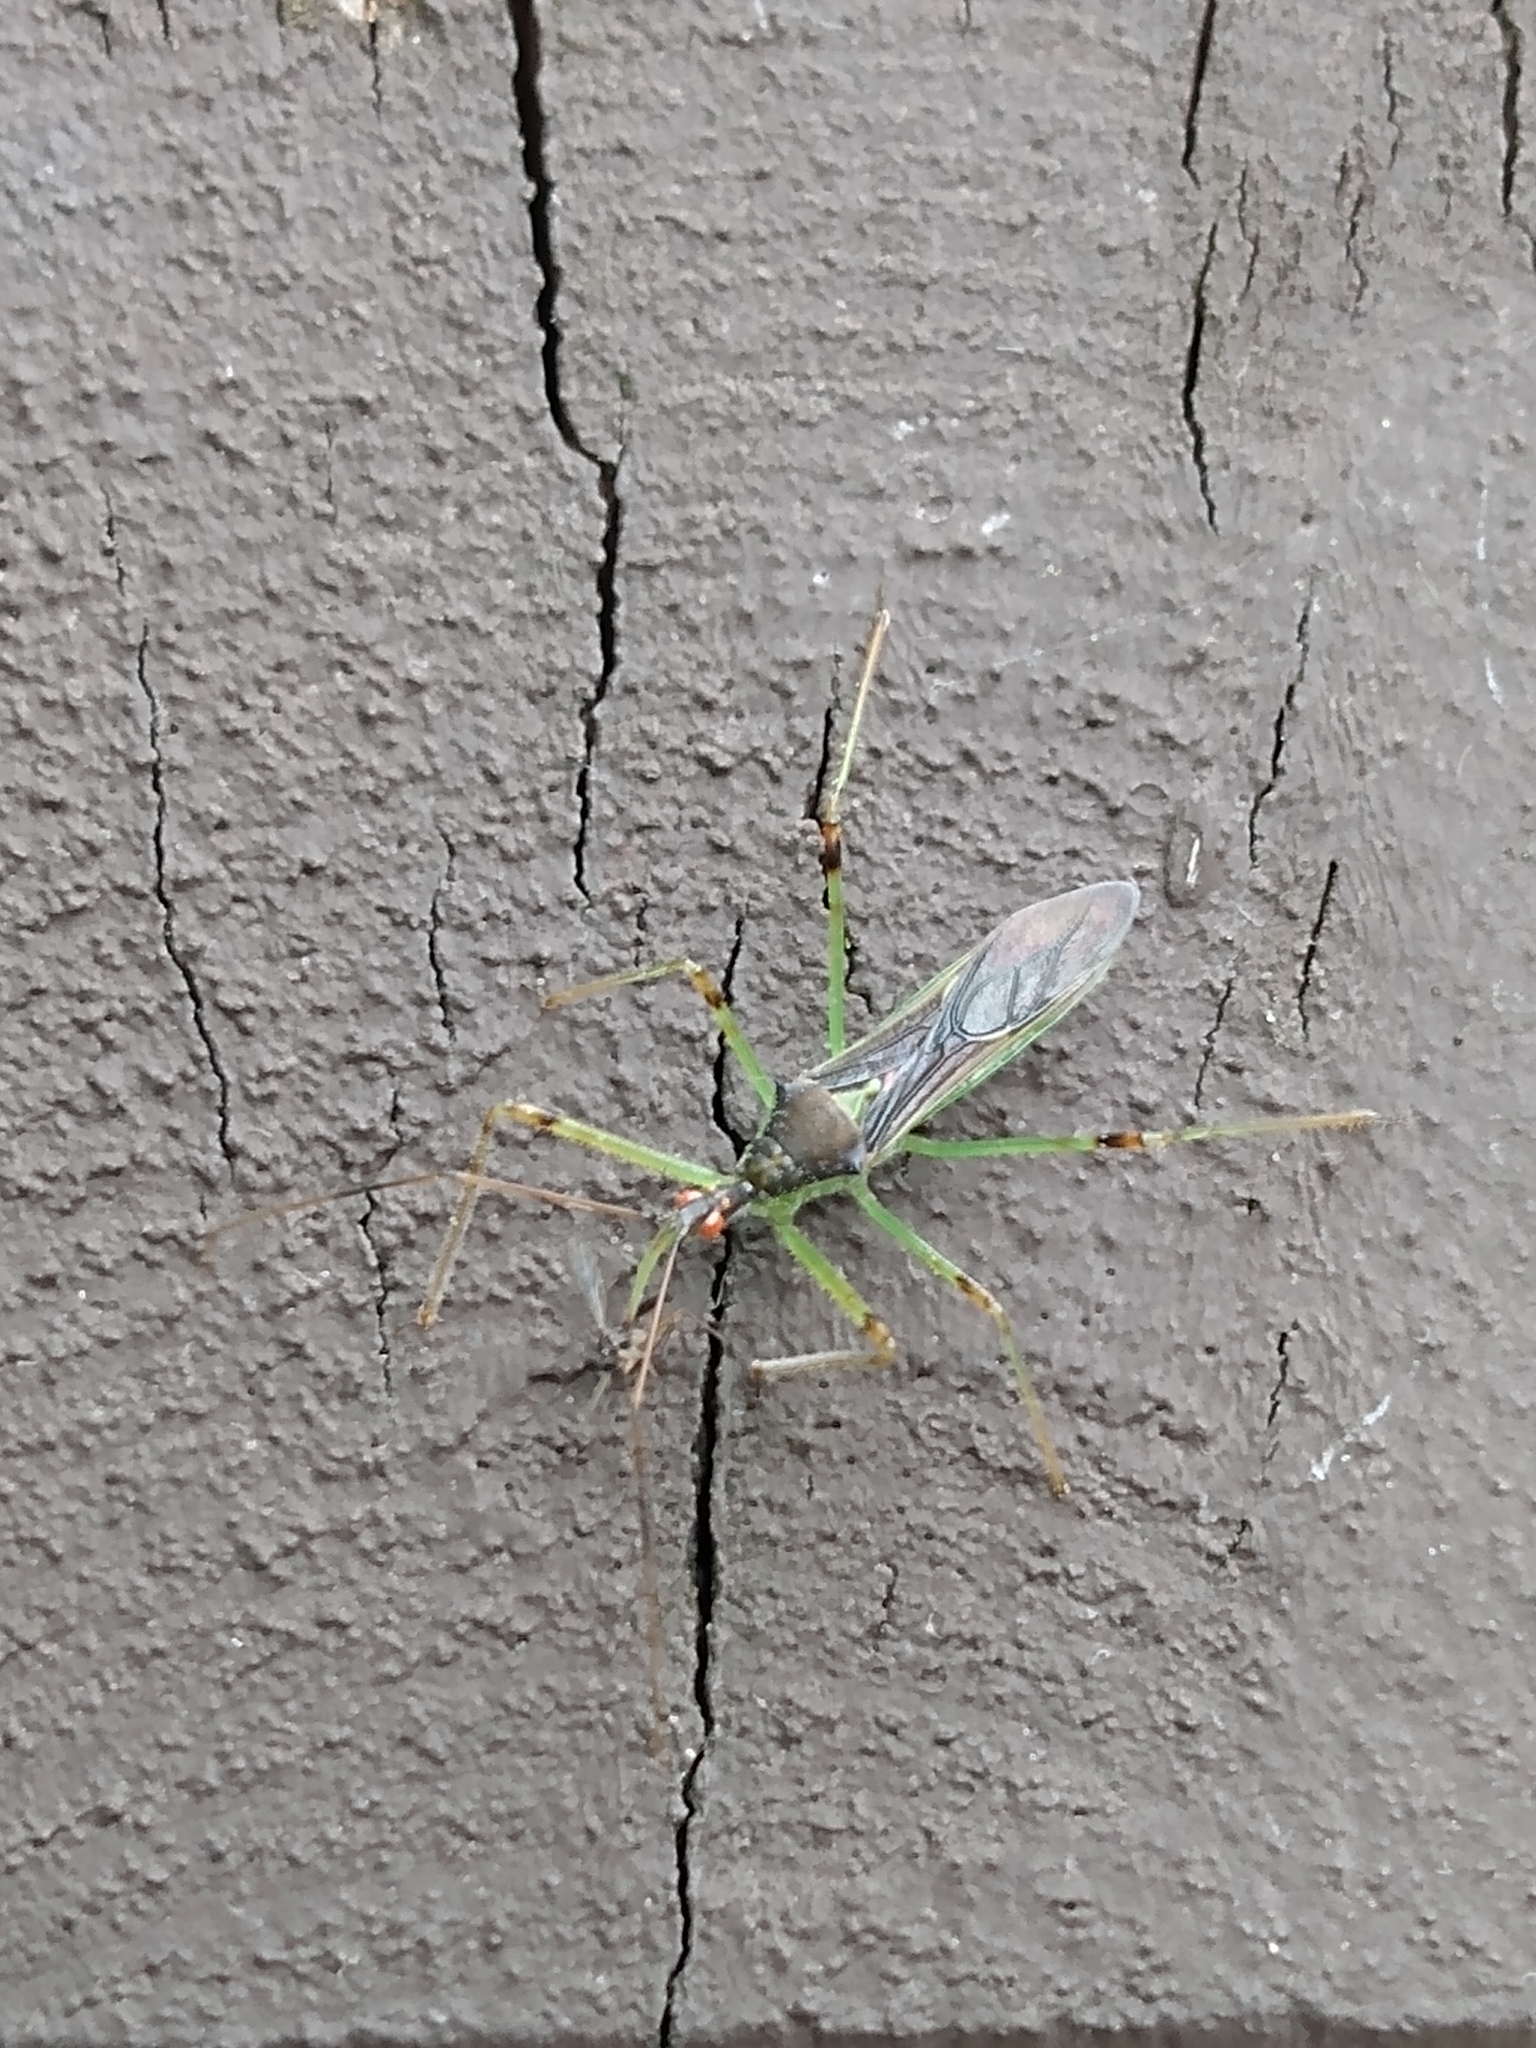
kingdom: Animalia
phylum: Arthropoda
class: Insecta
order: Hemiptera
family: Reduviidae
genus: Zelus
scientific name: Zelus luridus
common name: Pale green assassin bug
